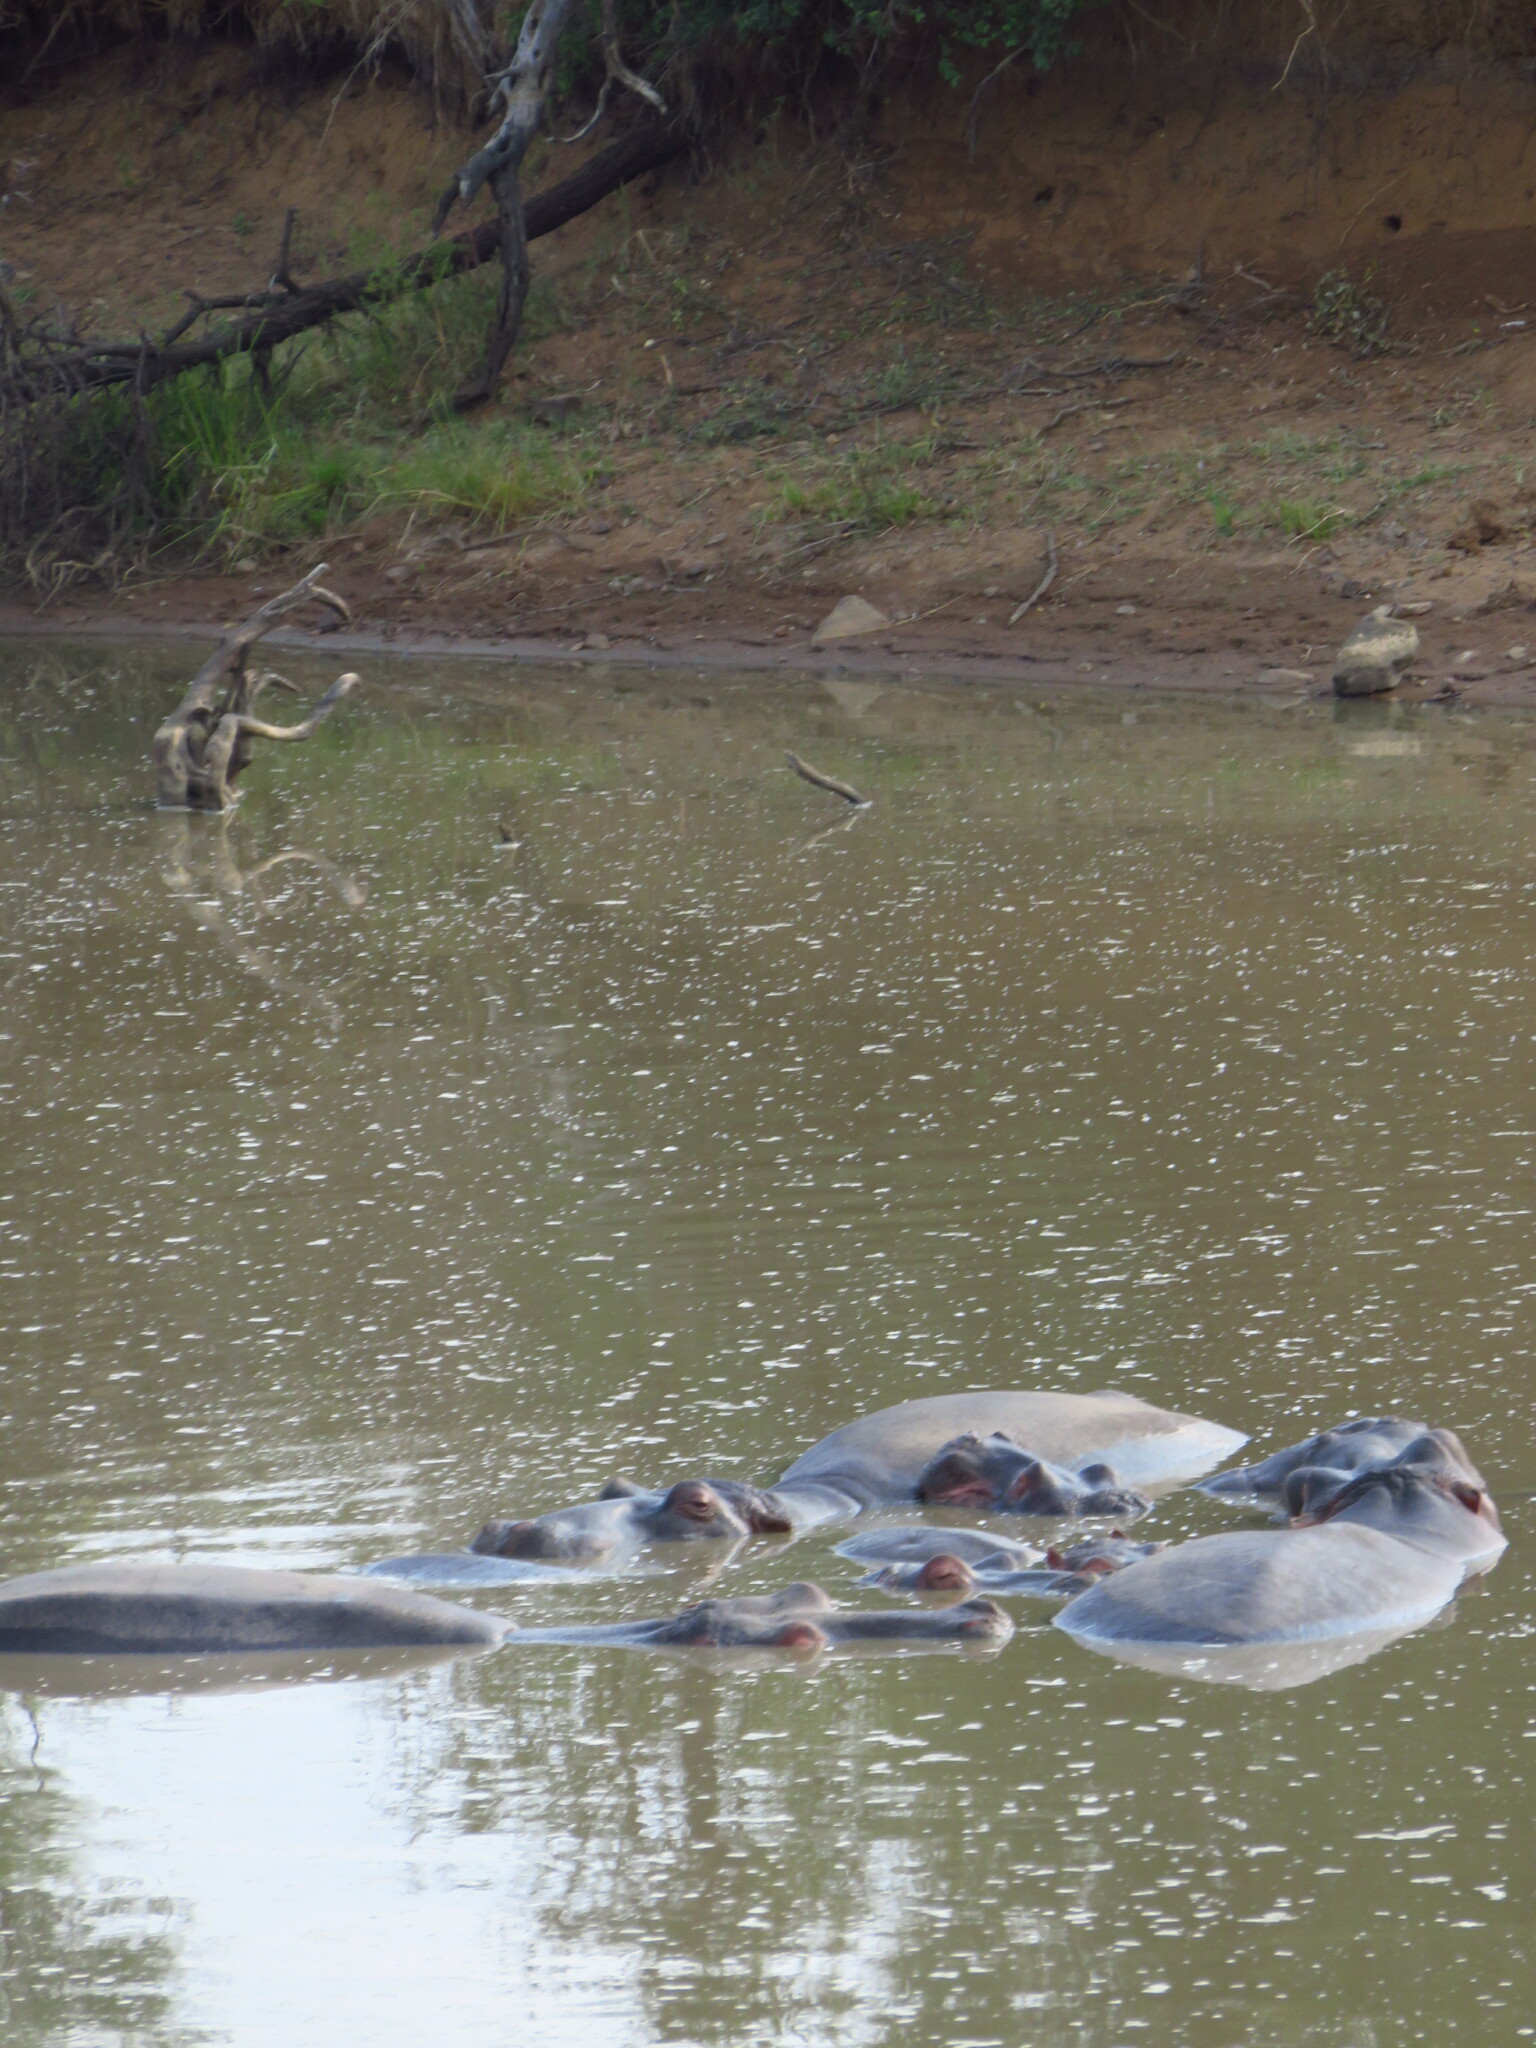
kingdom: Animalia
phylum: Chordata
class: Mammalia
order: Artiodactyla
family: Hippopotamidae
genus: Hippopotamus
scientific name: Hippopotamus amphibius
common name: Common hippopotamus
